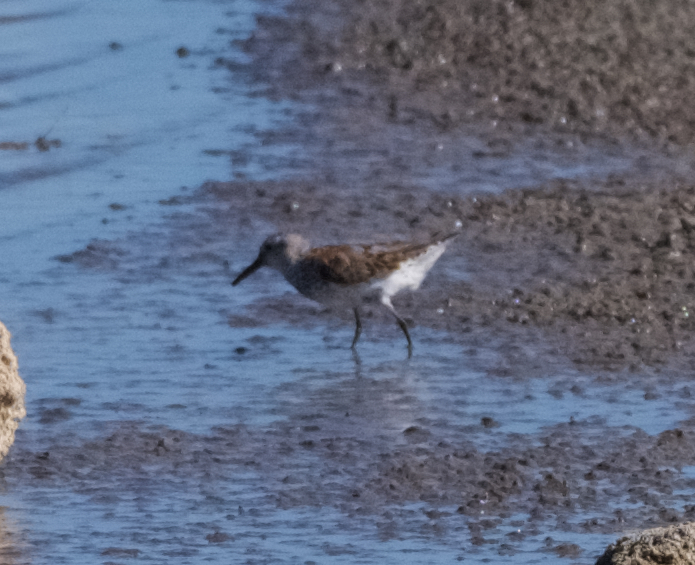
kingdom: Animalia
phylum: Chordata
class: Aves
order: Charadriiformes
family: Scolopacidae
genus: Calidris
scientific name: Calidris mauri
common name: Western sandpiper
